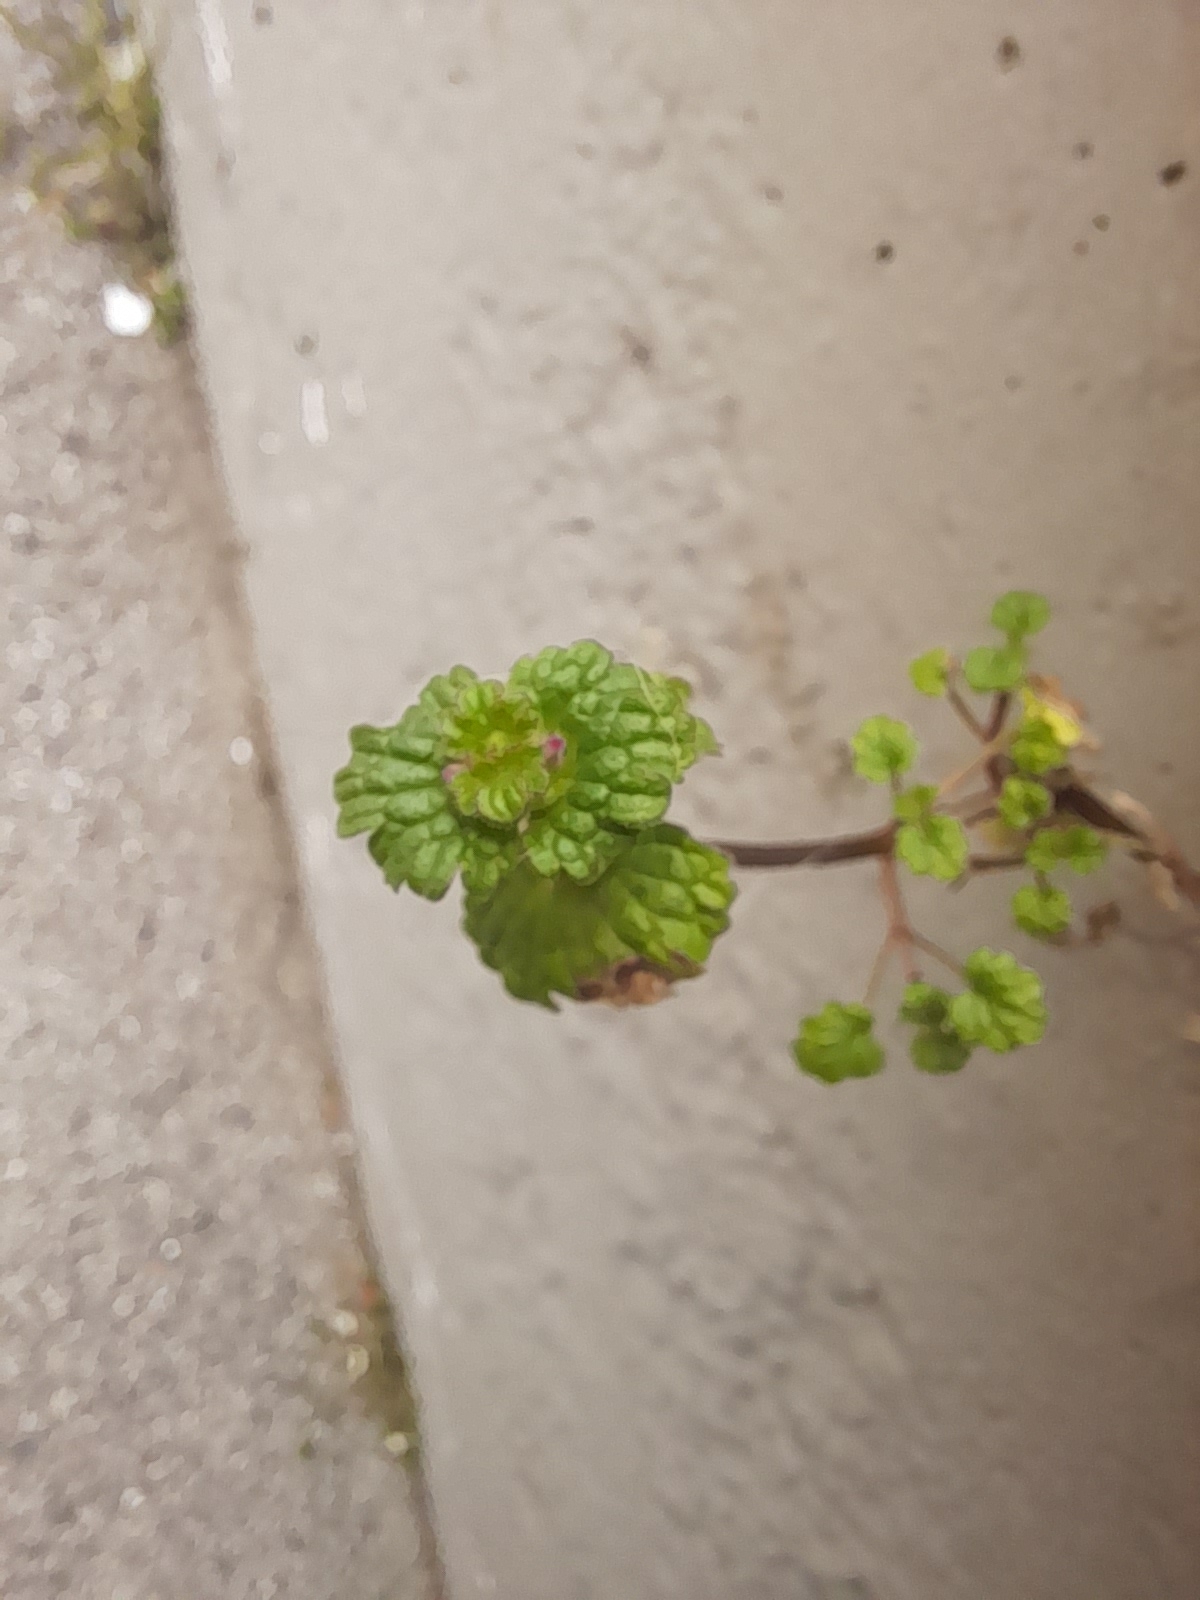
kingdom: Plantae
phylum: Tracheophyta
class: Magnoliopsida
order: Lamiales
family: Lamiaceae
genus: Lamium
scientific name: Lamium amplexicaule
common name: Henbit dead-nettle
